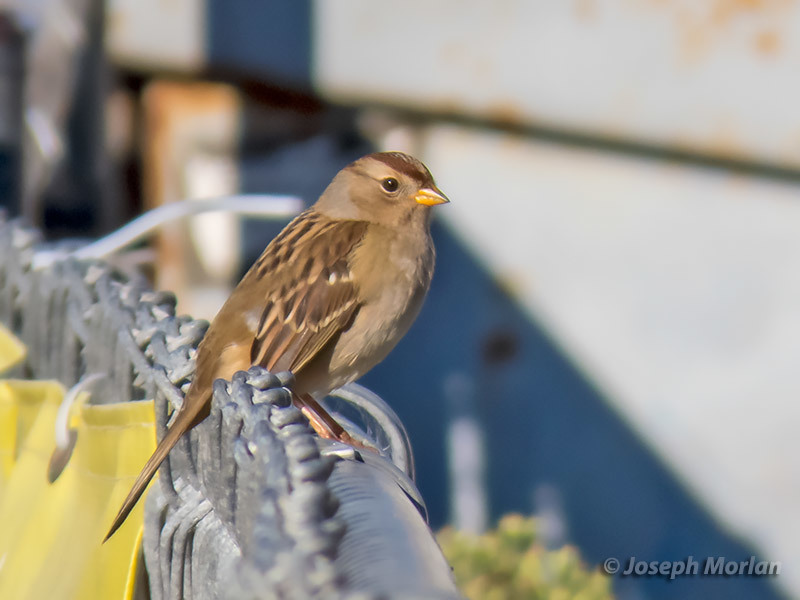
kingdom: Animalia
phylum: Chordata
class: Aves
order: Passeriformes
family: Passerellidae
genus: Zonotrichia
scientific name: Zonotrichia leucophrys
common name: White-crowned sparrow
